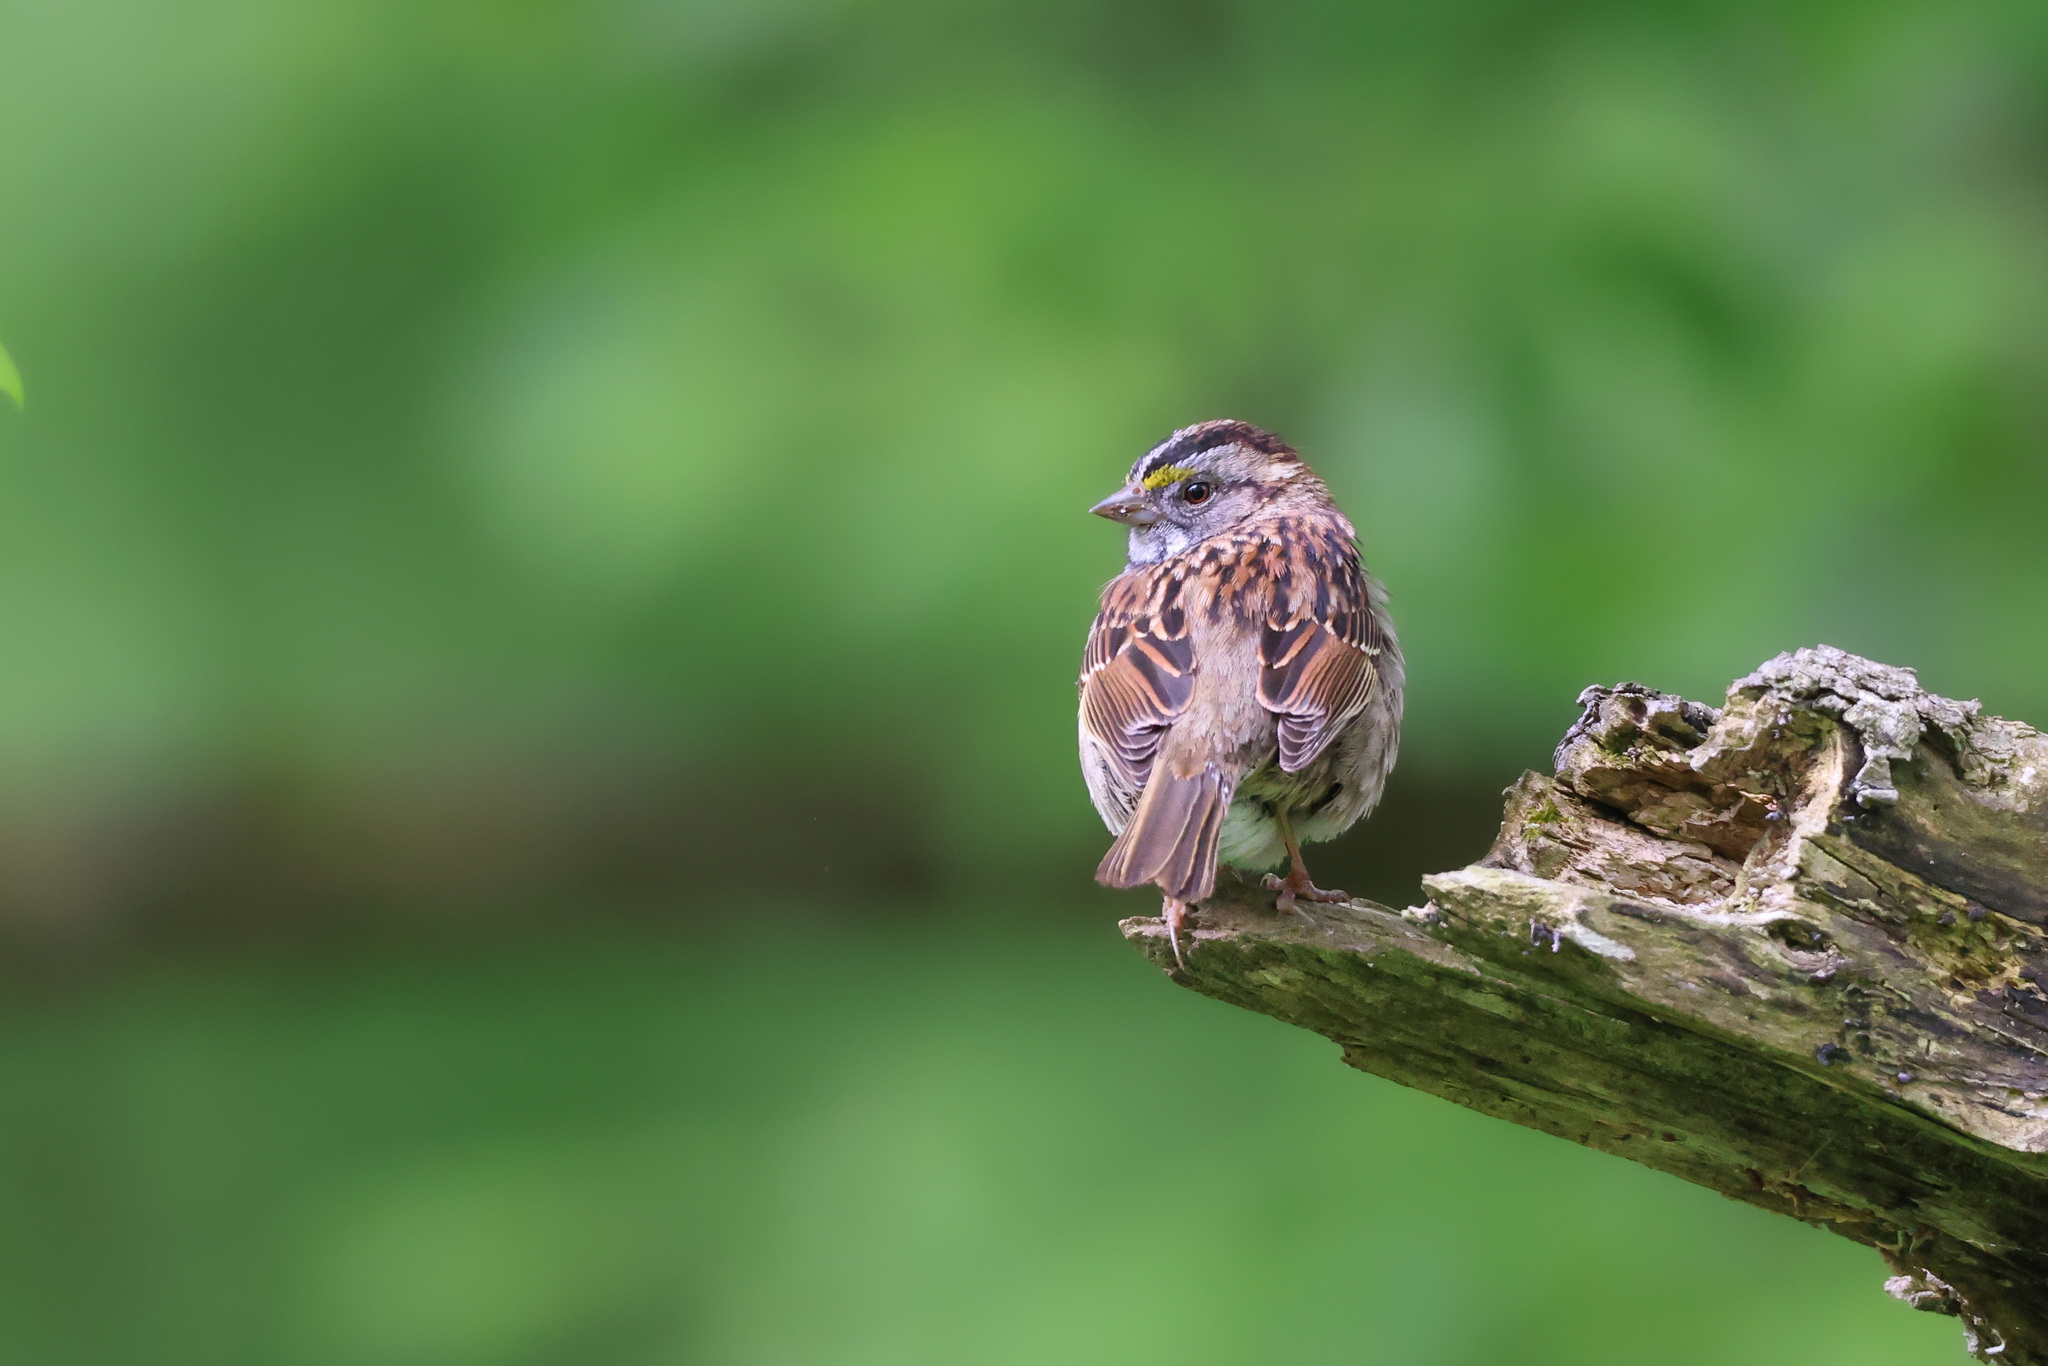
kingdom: Animalia
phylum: Chordata
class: Aves
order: Passeriformes
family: Passerellidae
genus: Zonotrichia
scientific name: Zonotrichia albicollis
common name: White-throated sparrow
